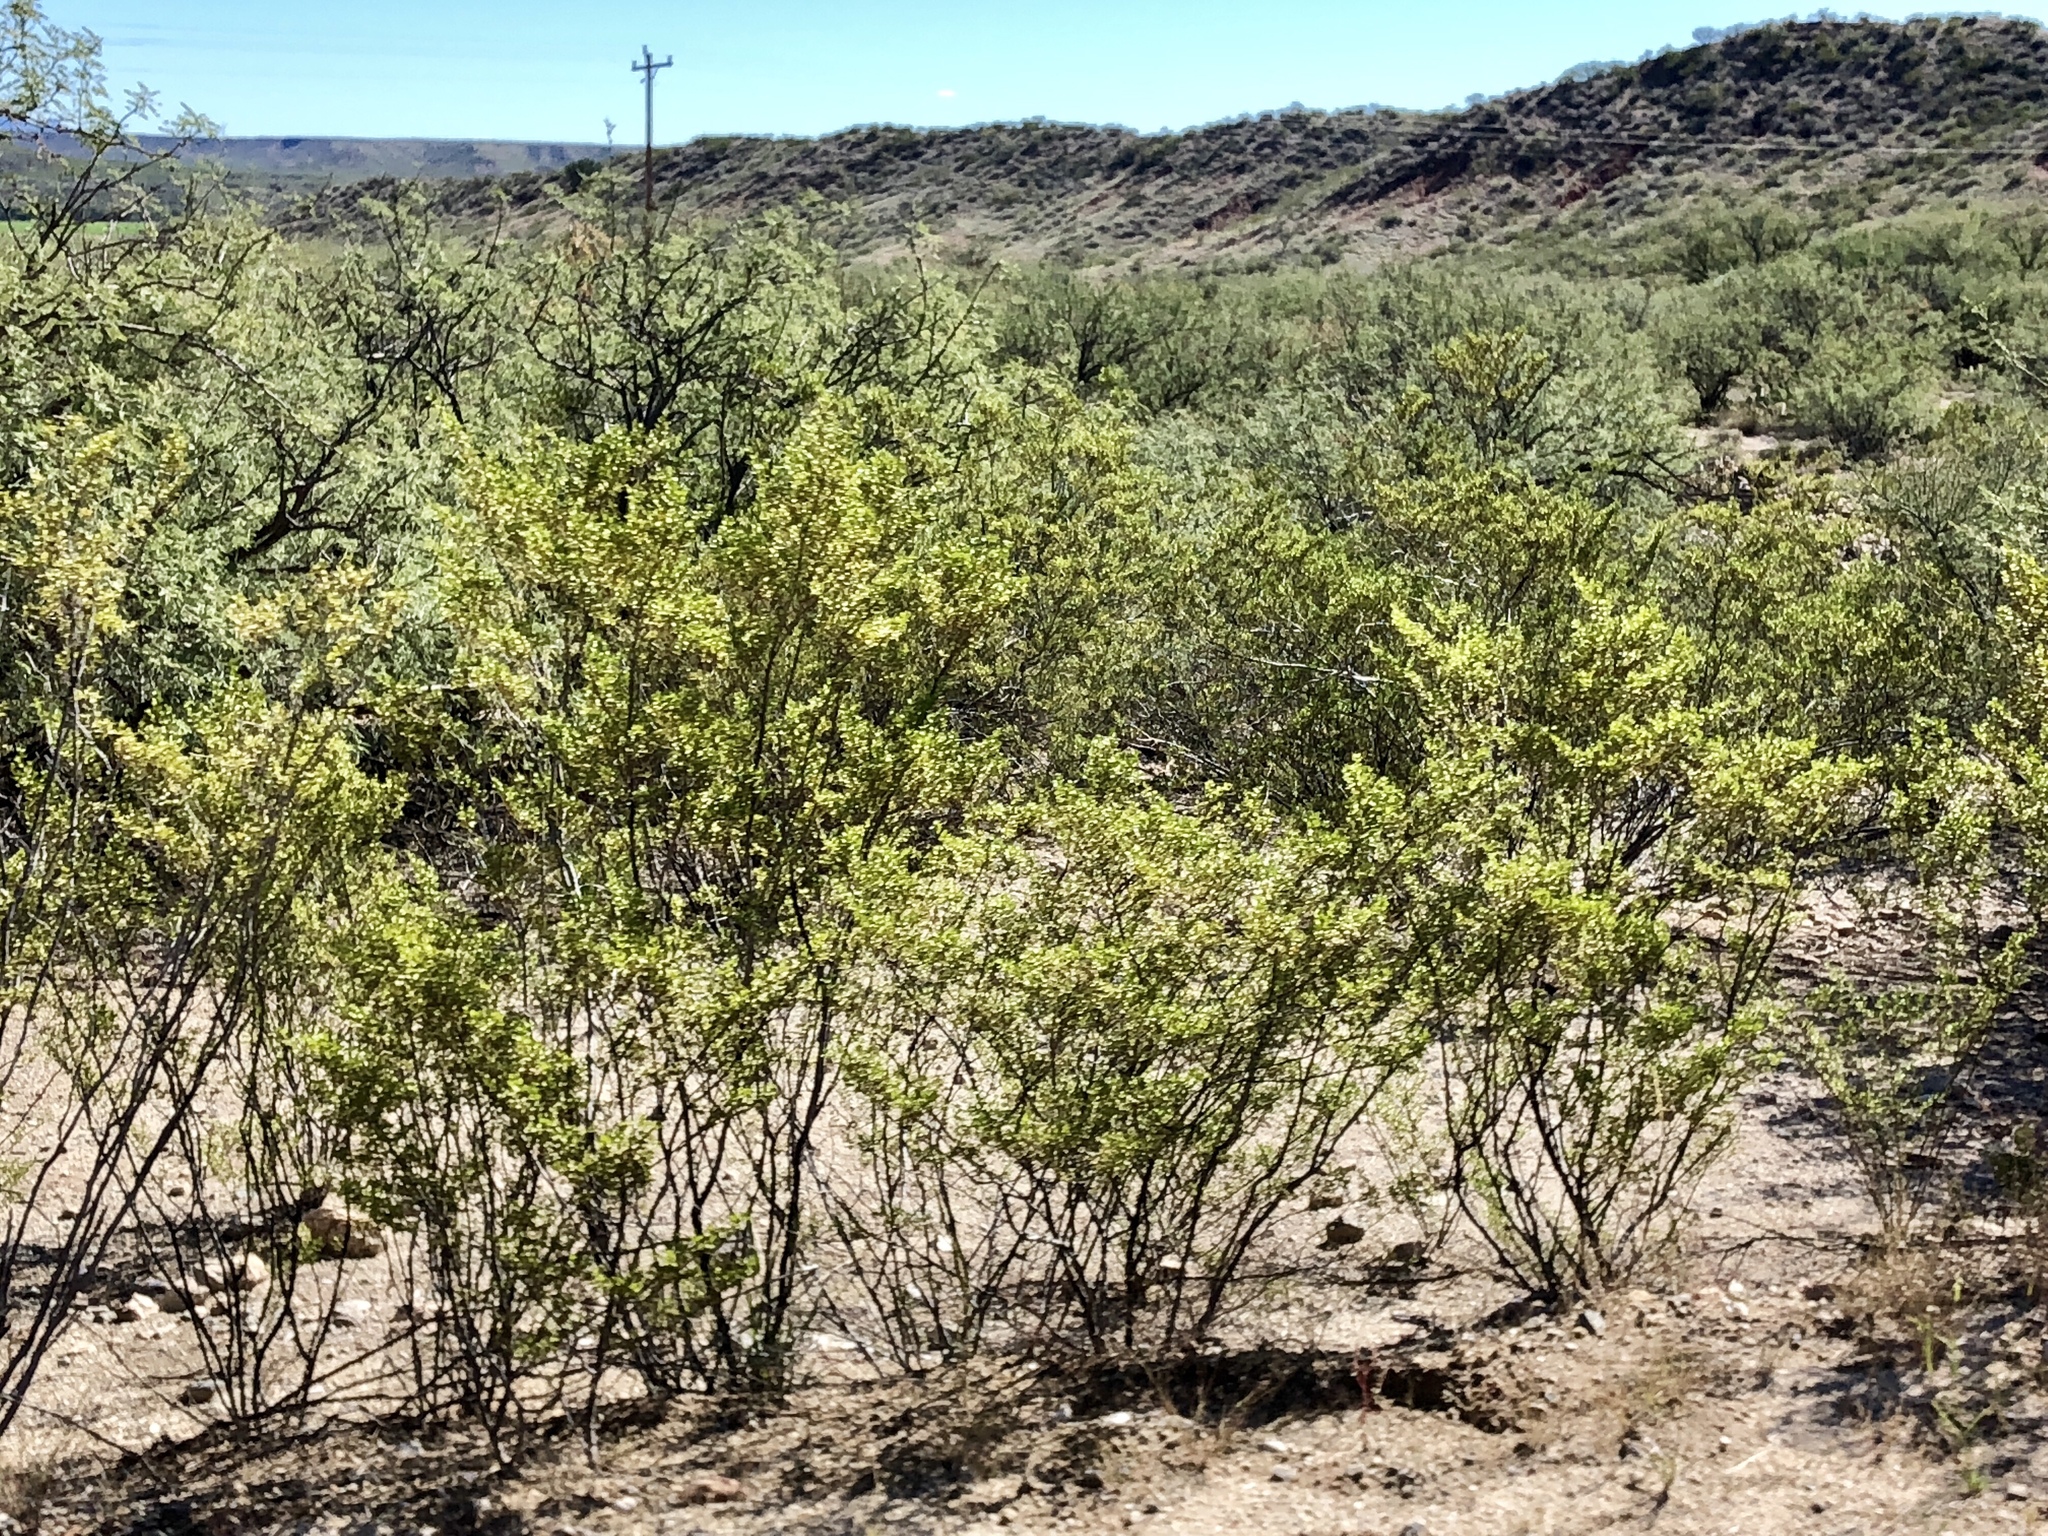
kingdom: Plantae
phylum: Tracheophyta
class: Magnoliopsida
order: Zygophyllales
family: Zygophyllaceae
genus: Larrea
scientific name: Larrea tridentata
